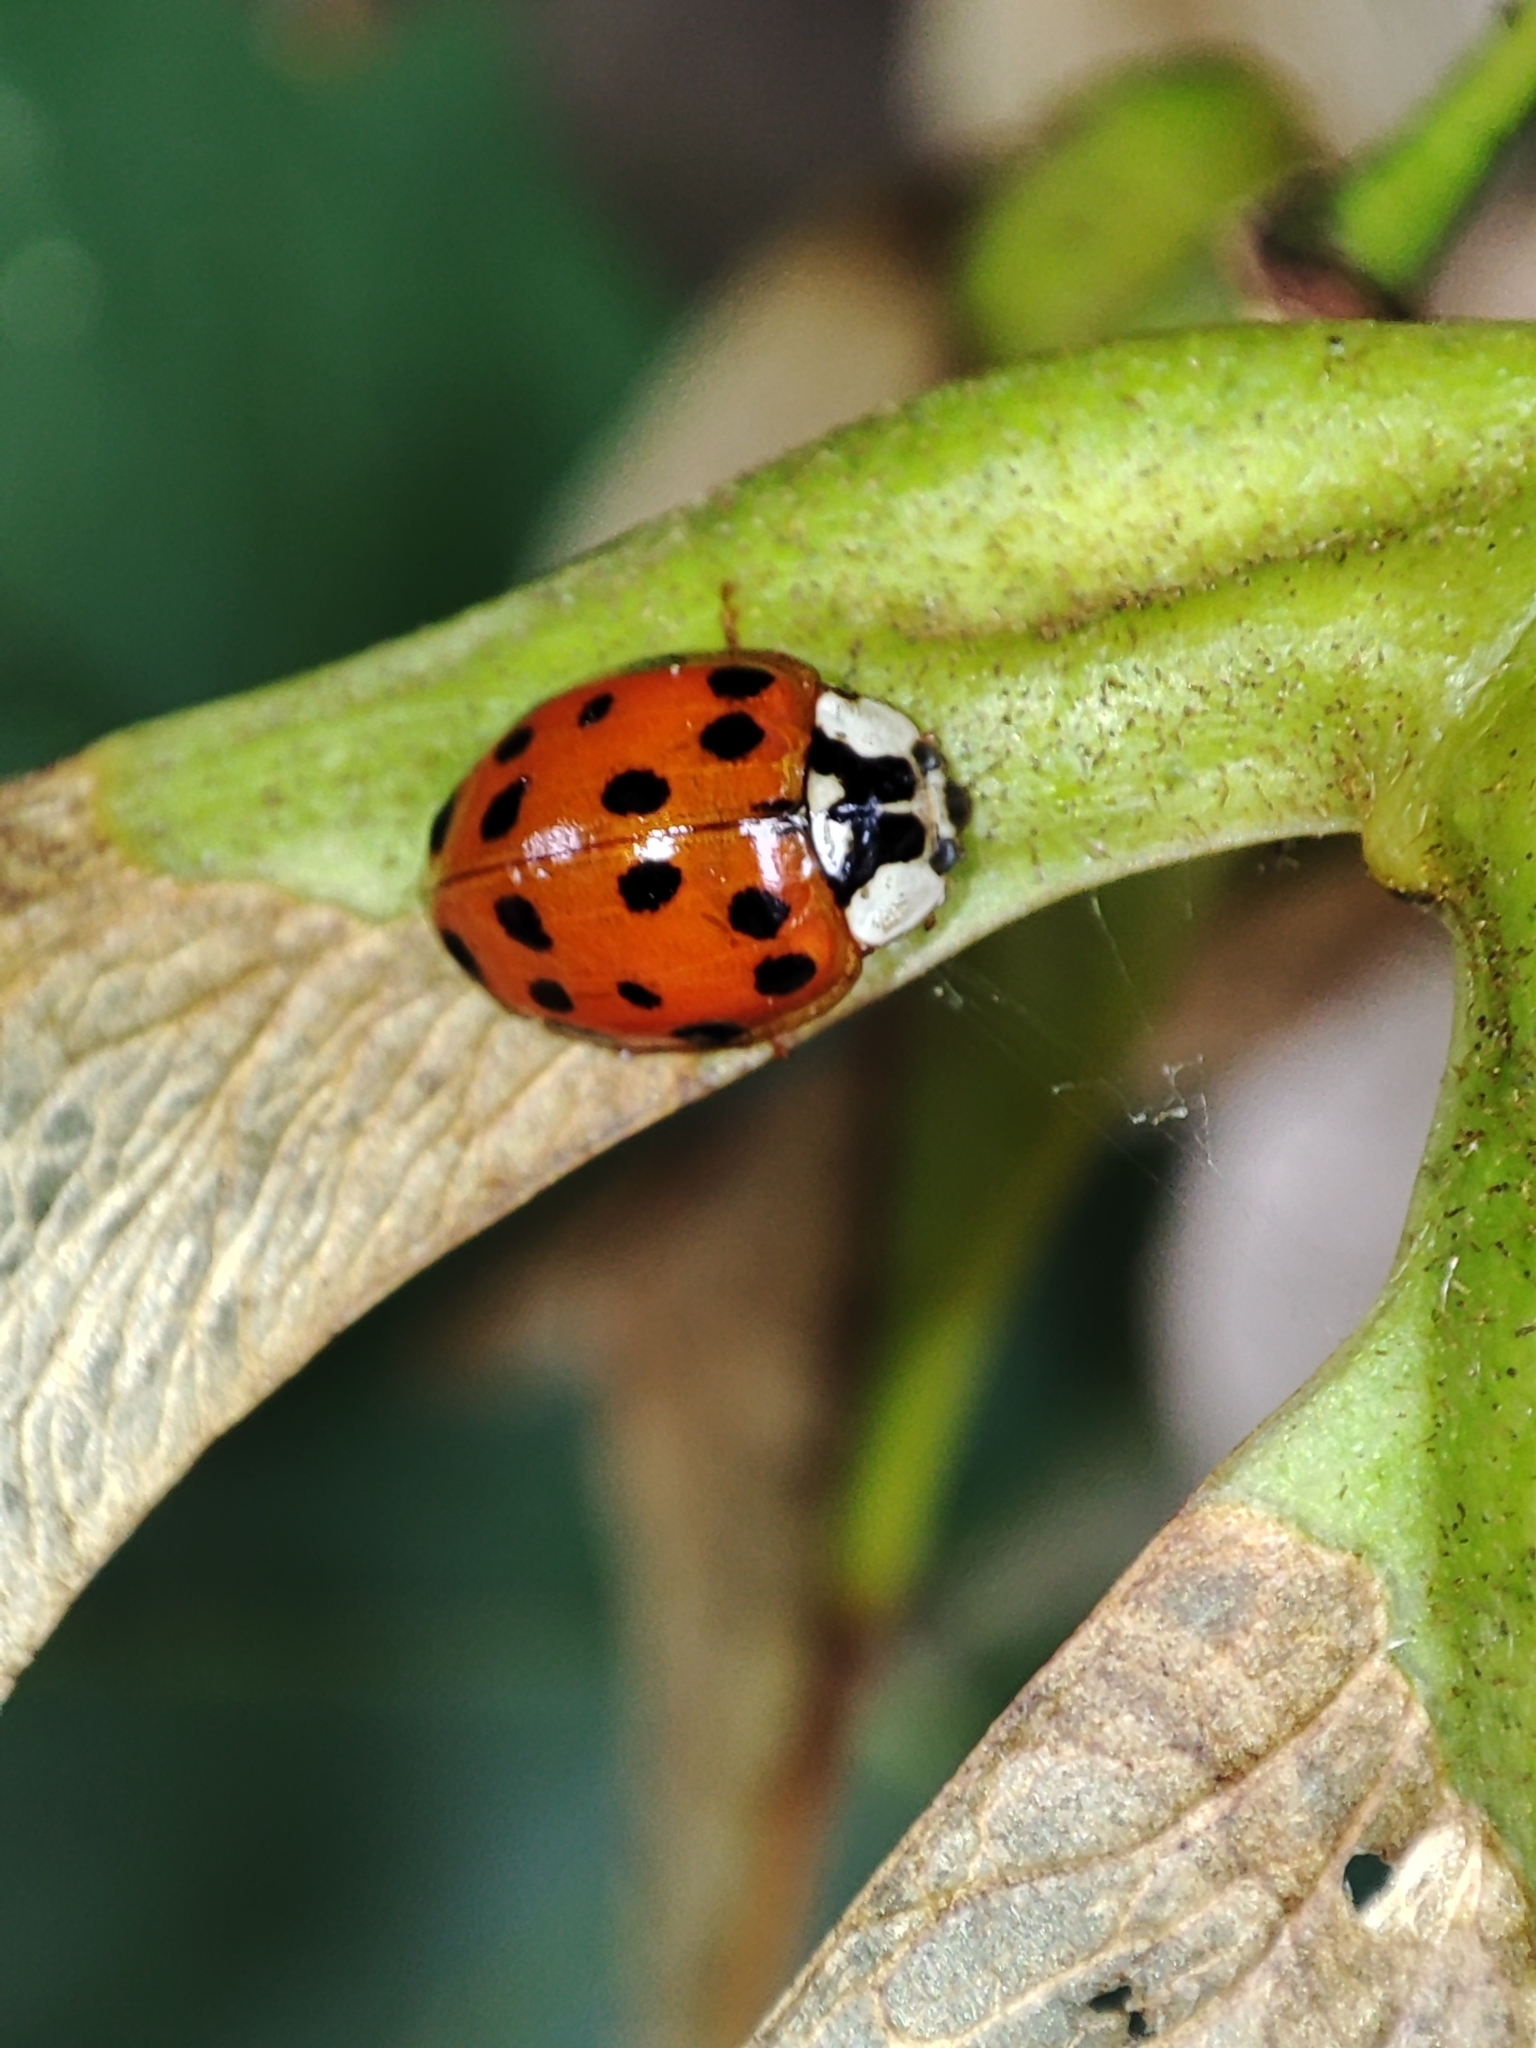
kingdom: Animalia
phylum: Arthropoda
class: Insecta
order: Coleoptera
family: Coccinellidae
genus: Harmonia
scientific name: Harmonia axyridis
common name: Harlequin ladybird
